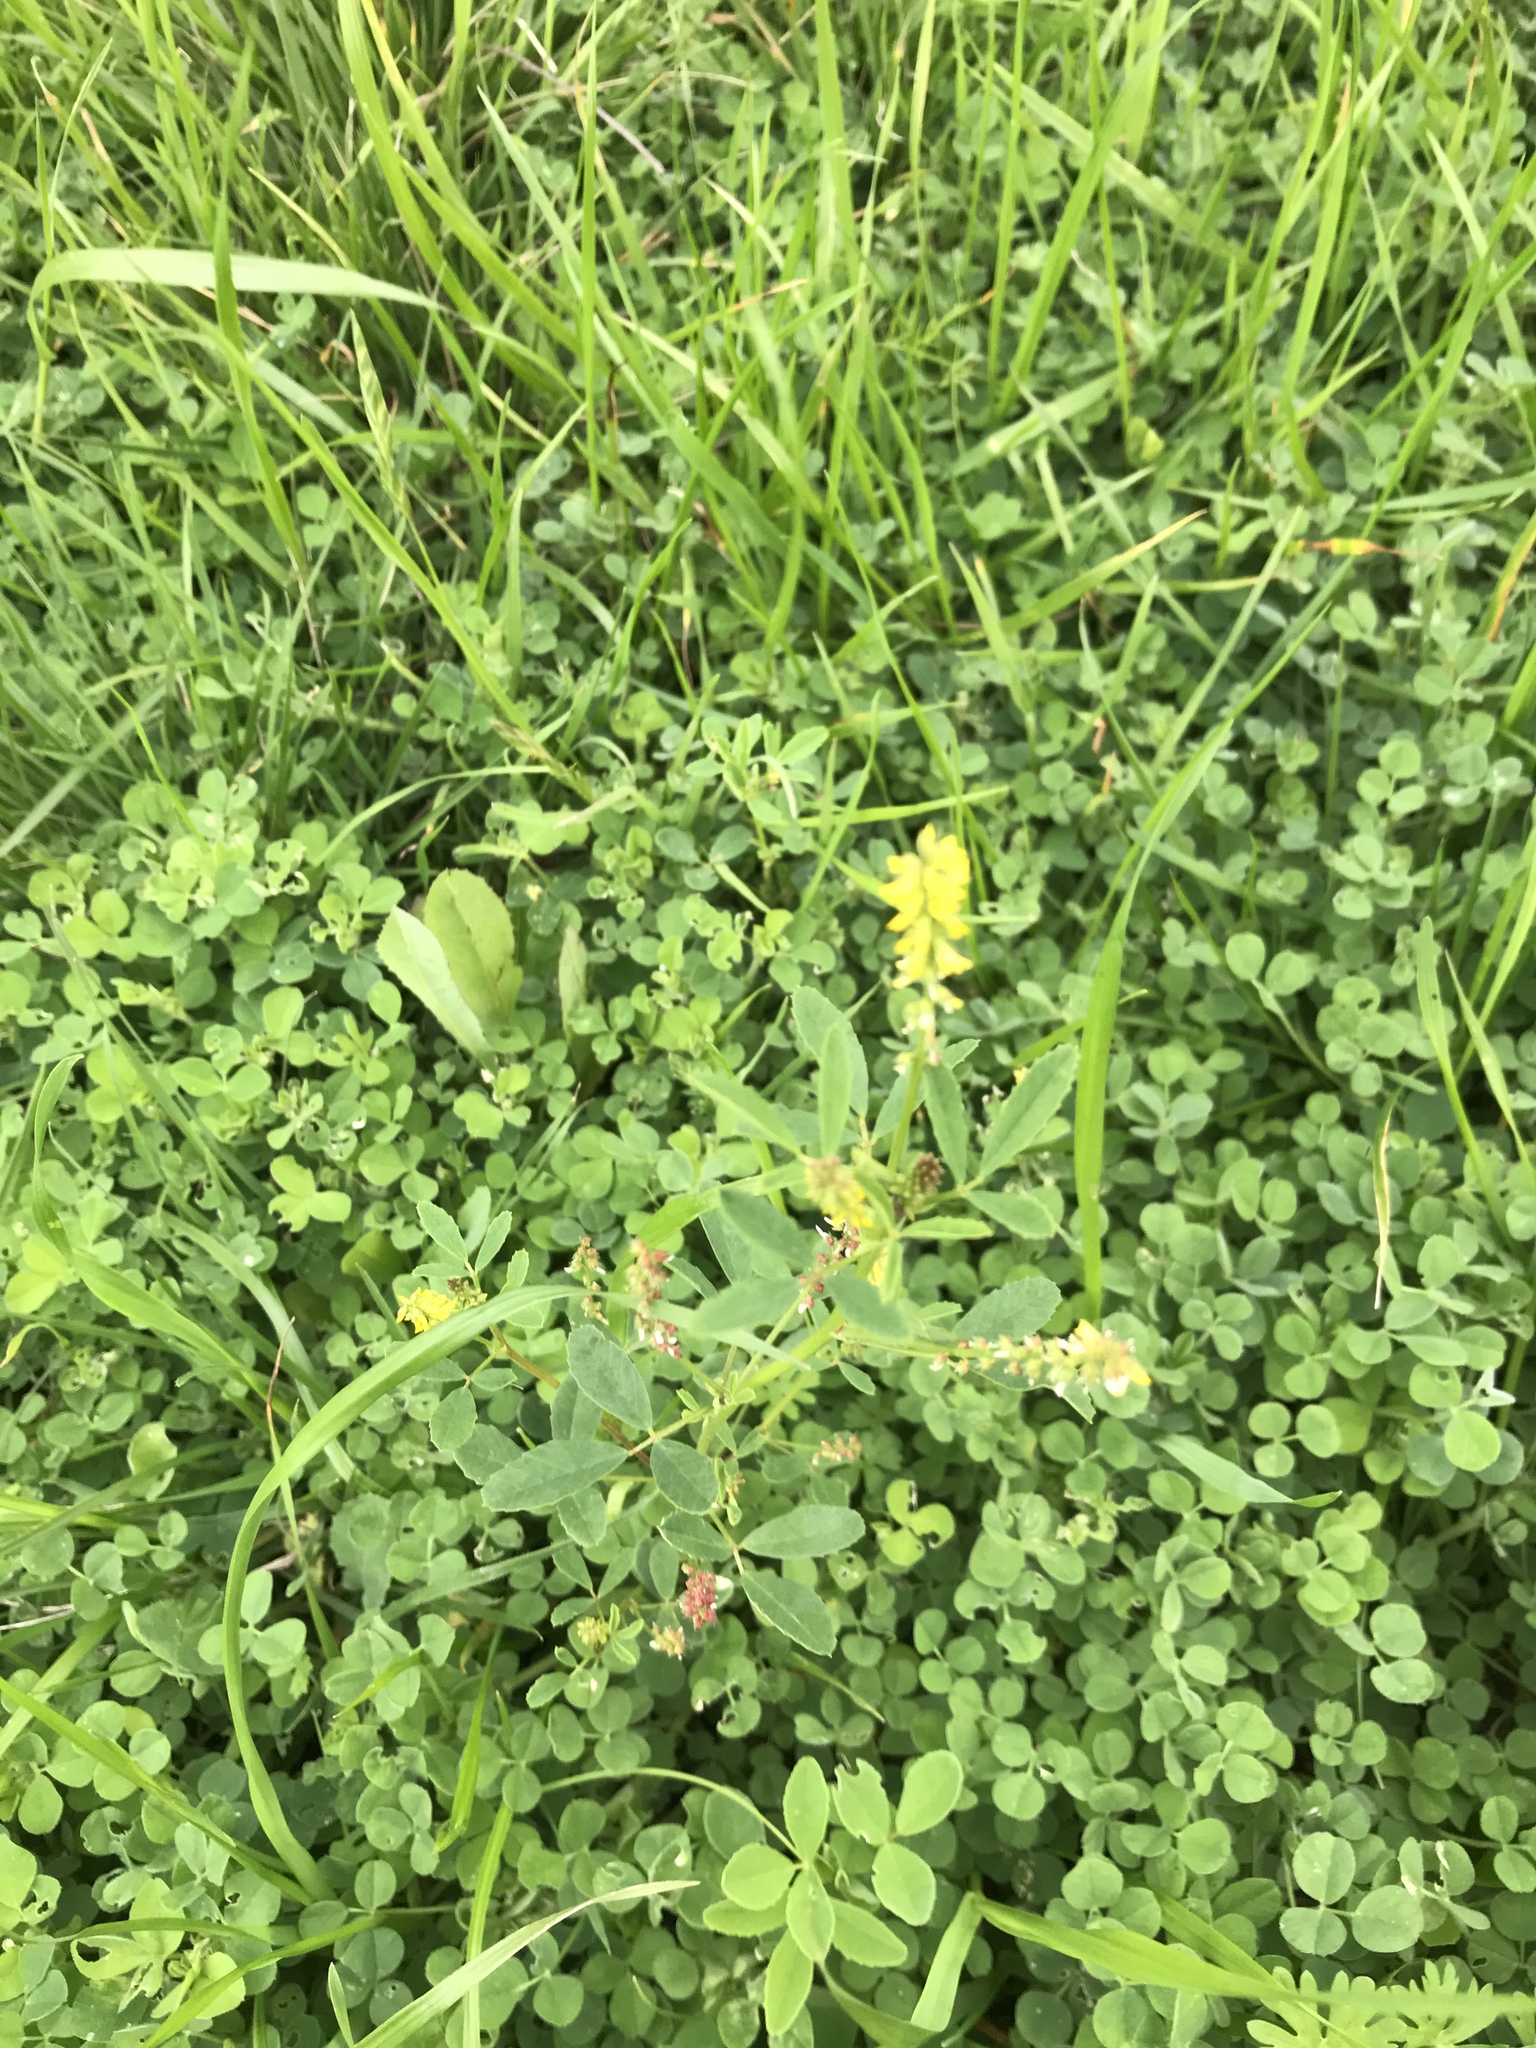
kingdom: Plantae
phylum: Tracheophyta
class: Magnoliopsida
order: Fabales
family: Fabaceae
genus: Melilotus
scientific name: Melilotus indicus
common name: Small melilot
